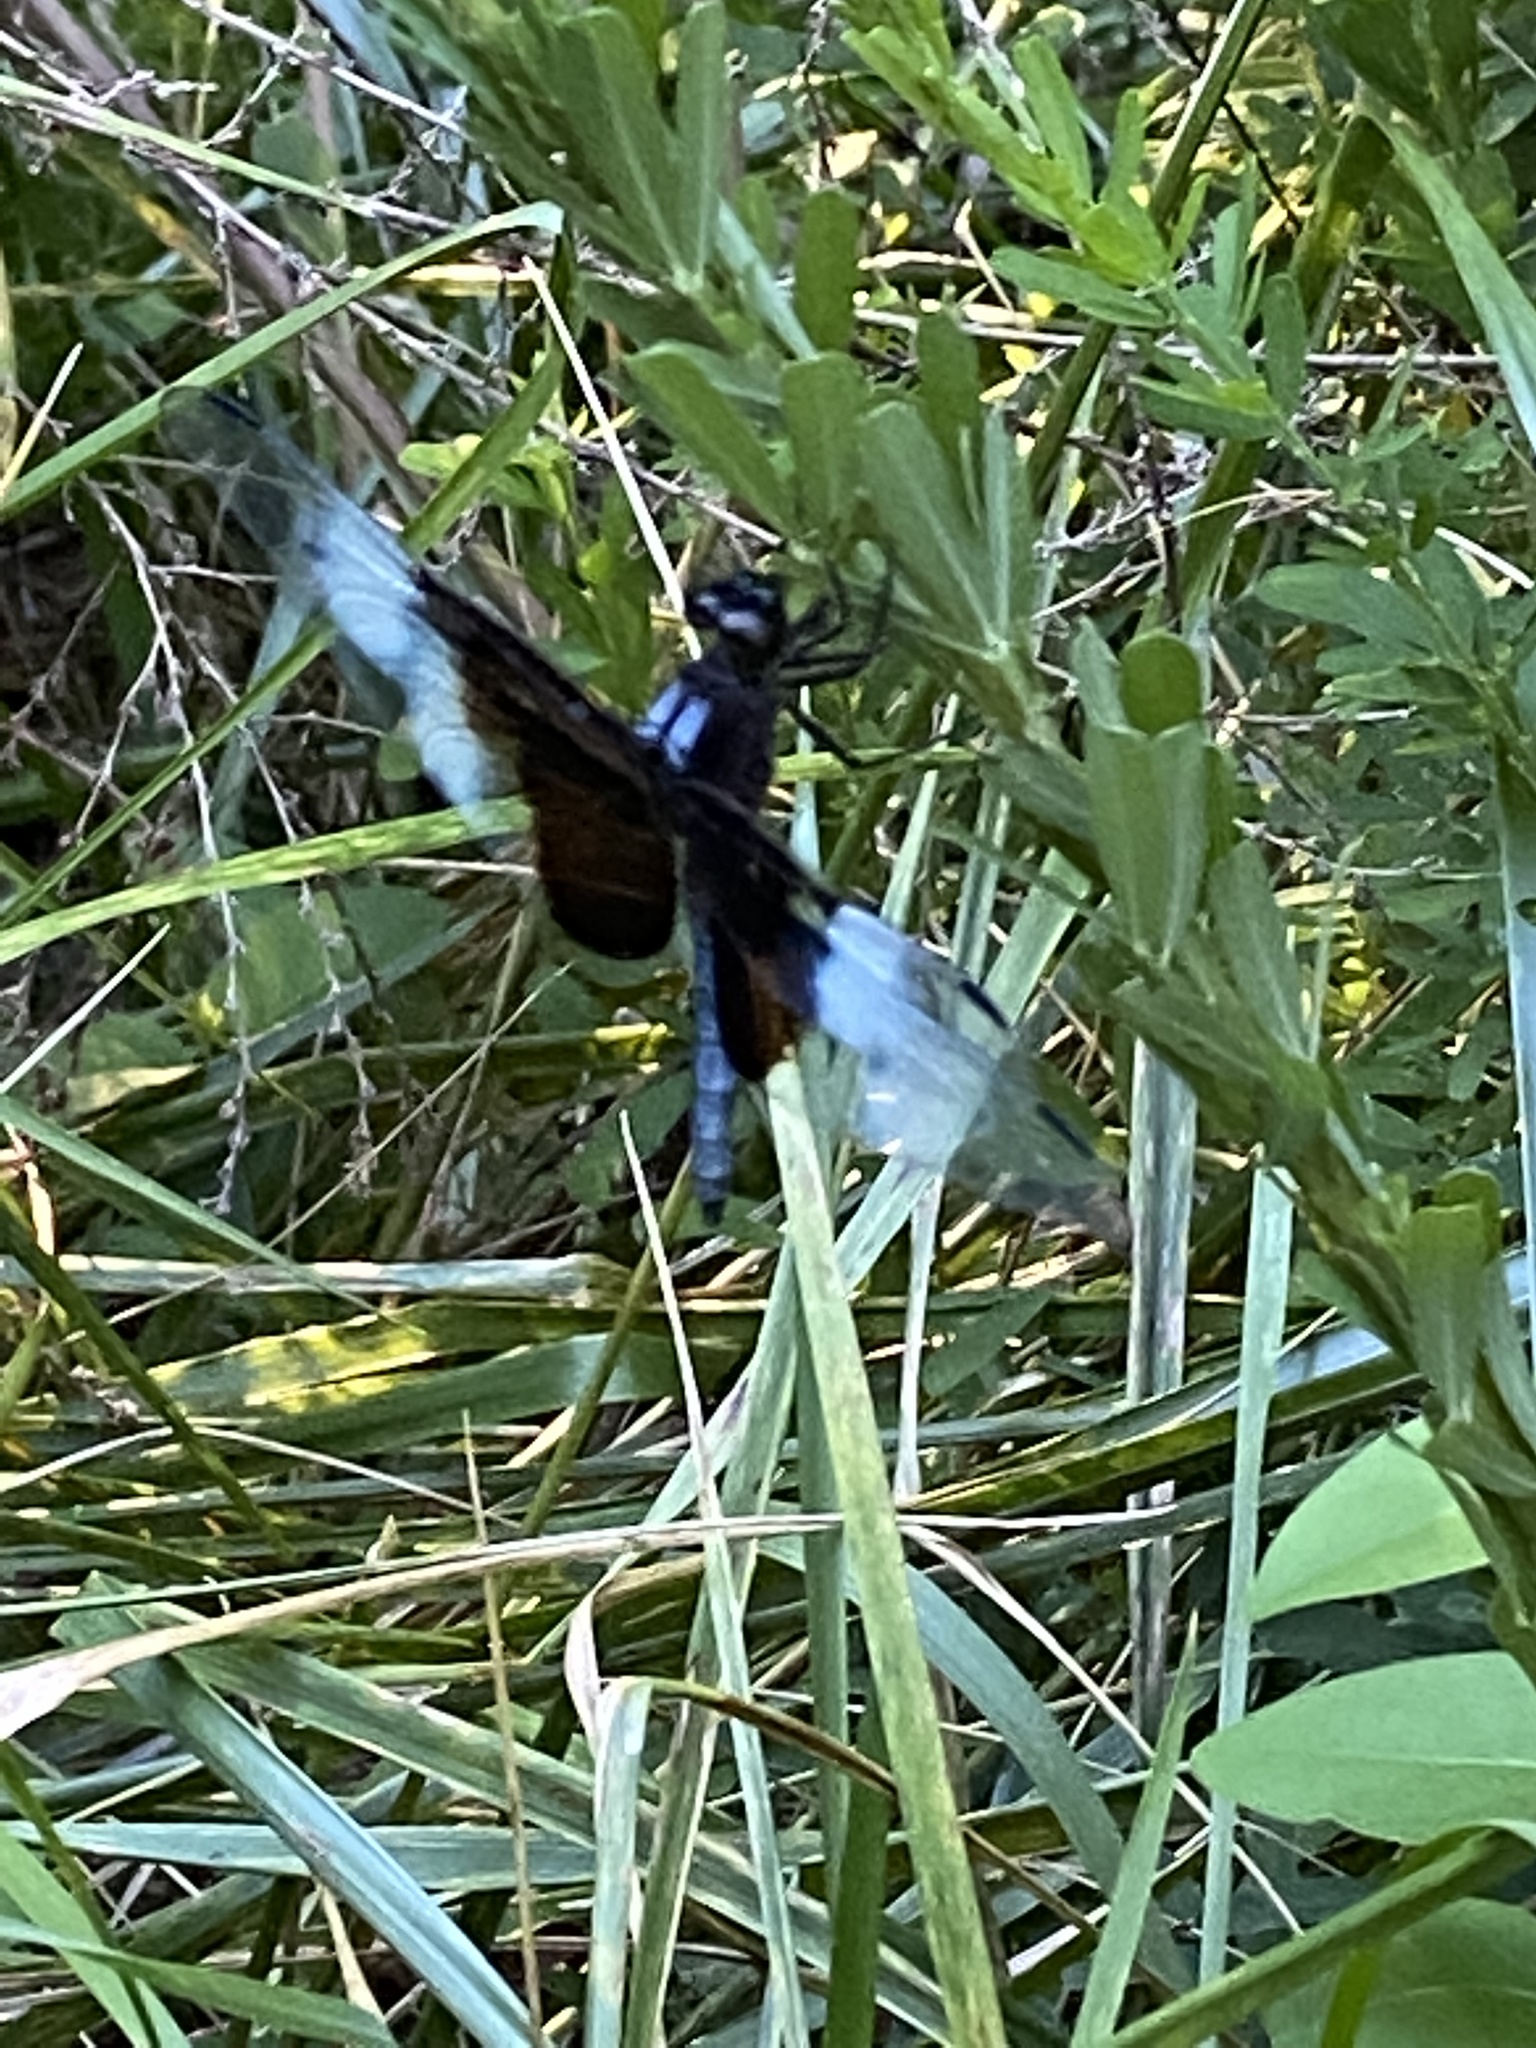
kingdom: Animalia
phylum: Arthropoda
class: Insecta
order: Odonata
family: Libellulidae
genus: Libellula
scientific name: Libellula luctuosa
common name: Widow skimmer
